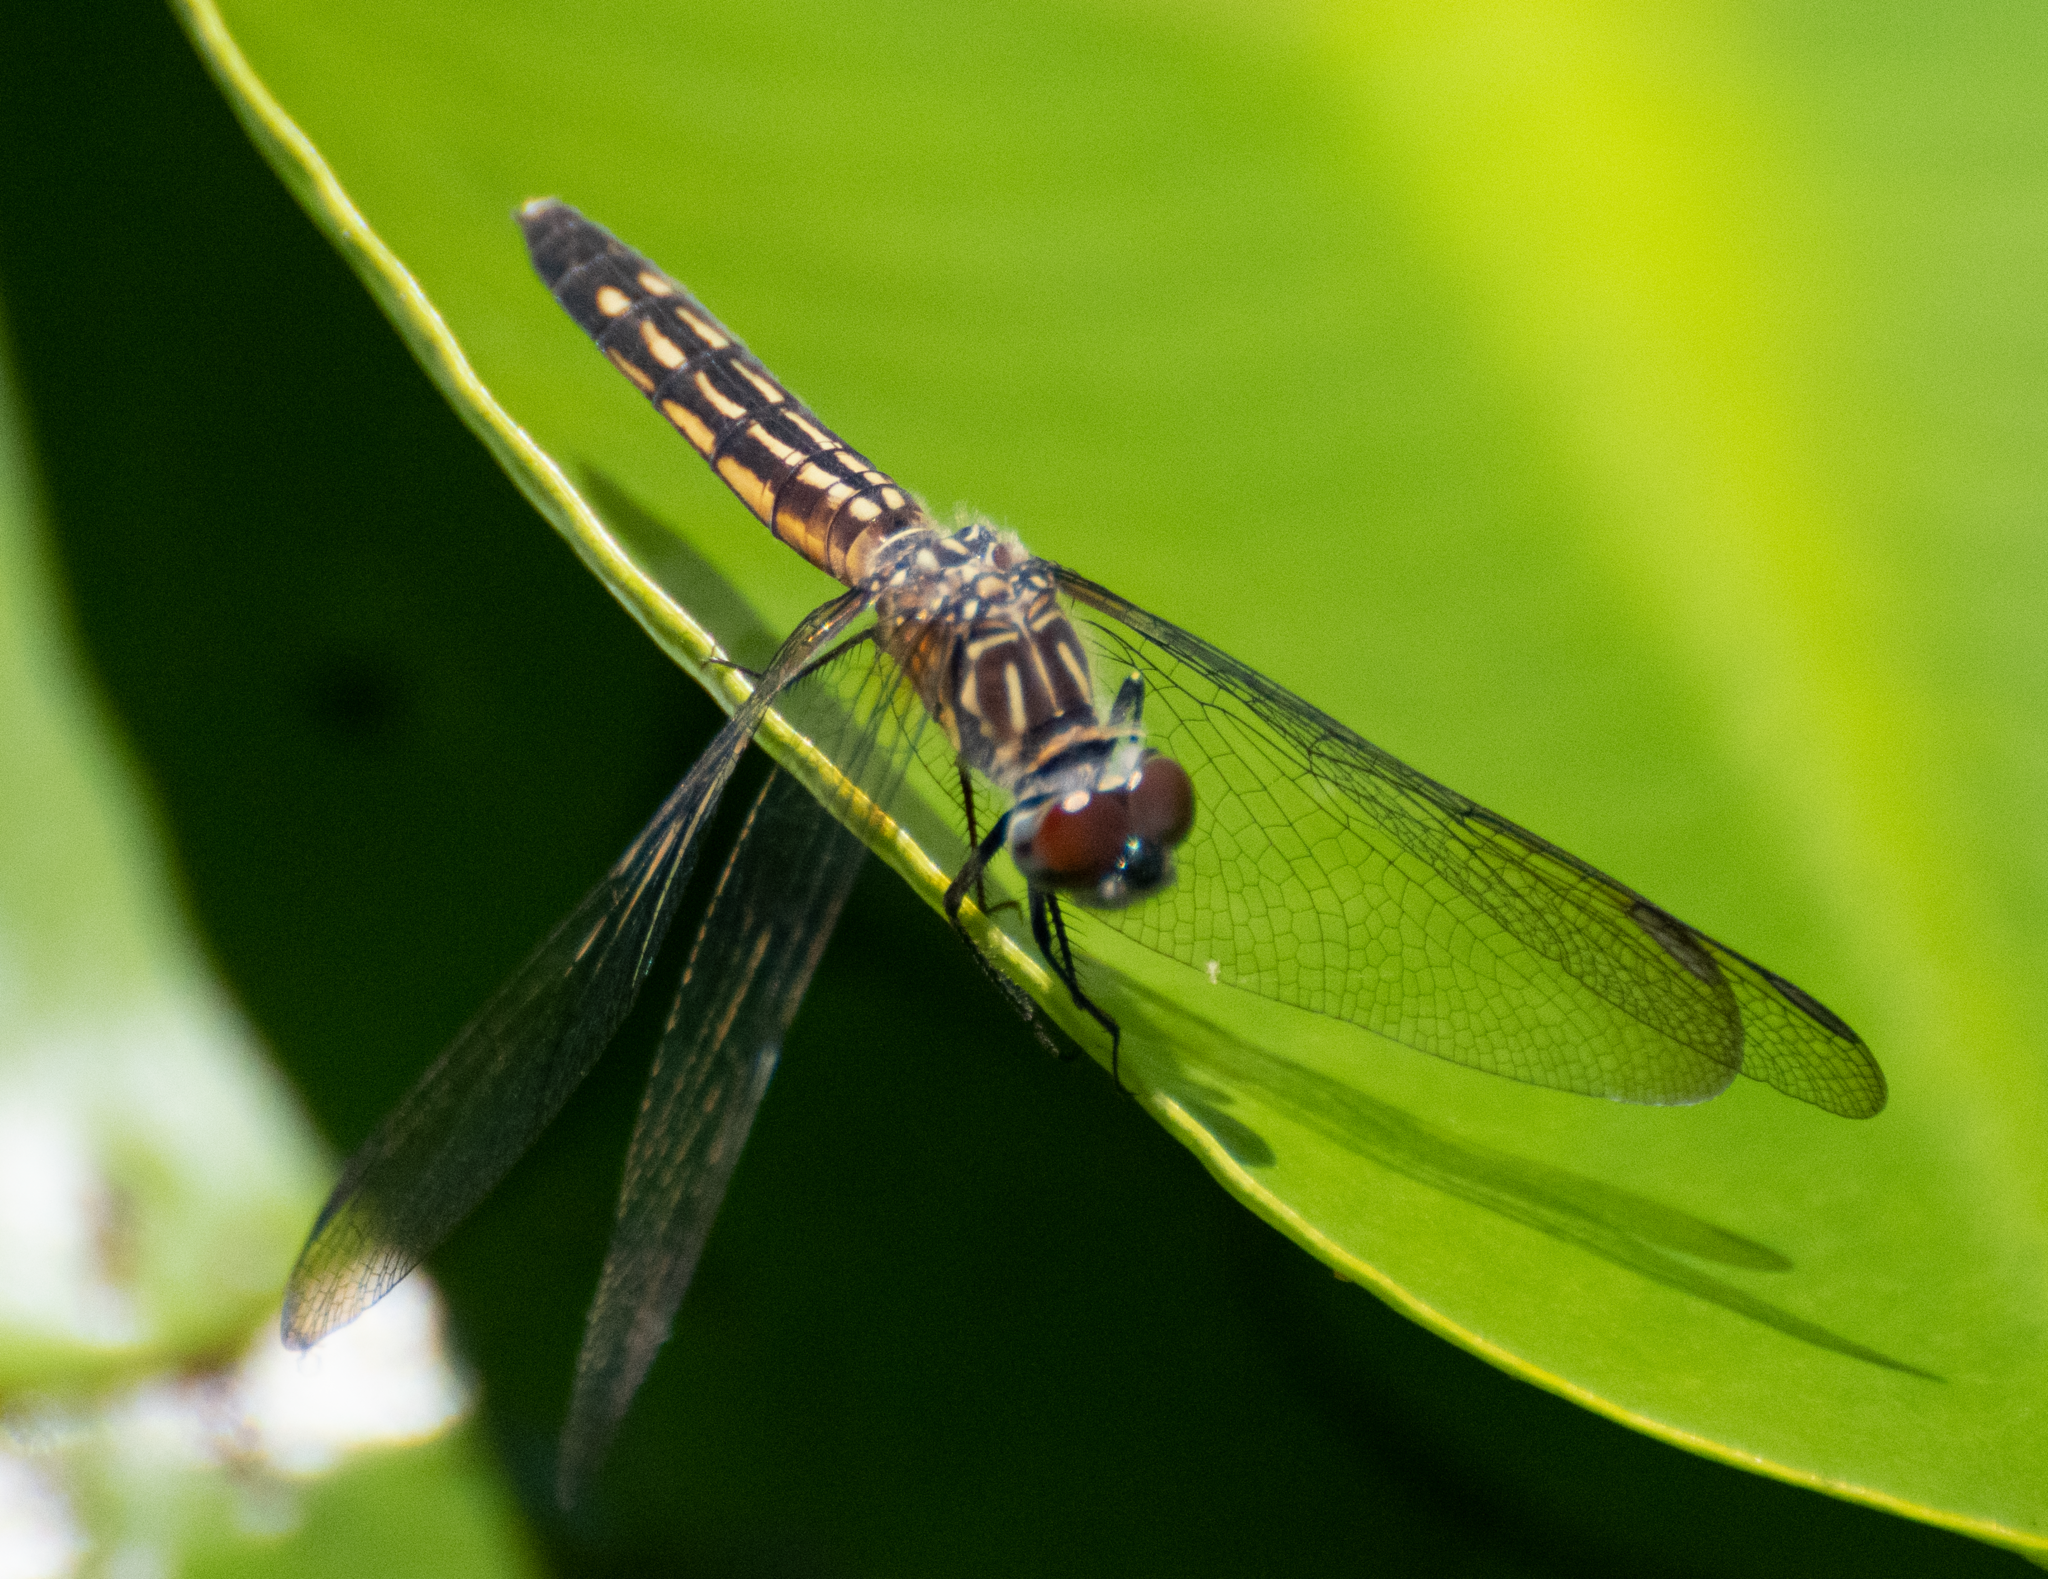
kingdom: Animalia
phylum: Arthropoda
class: Insecta
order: Odonata
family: Libellulidae
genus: Pachydiplax
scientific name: Pachydiplax longipennis
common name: Blue dasher
